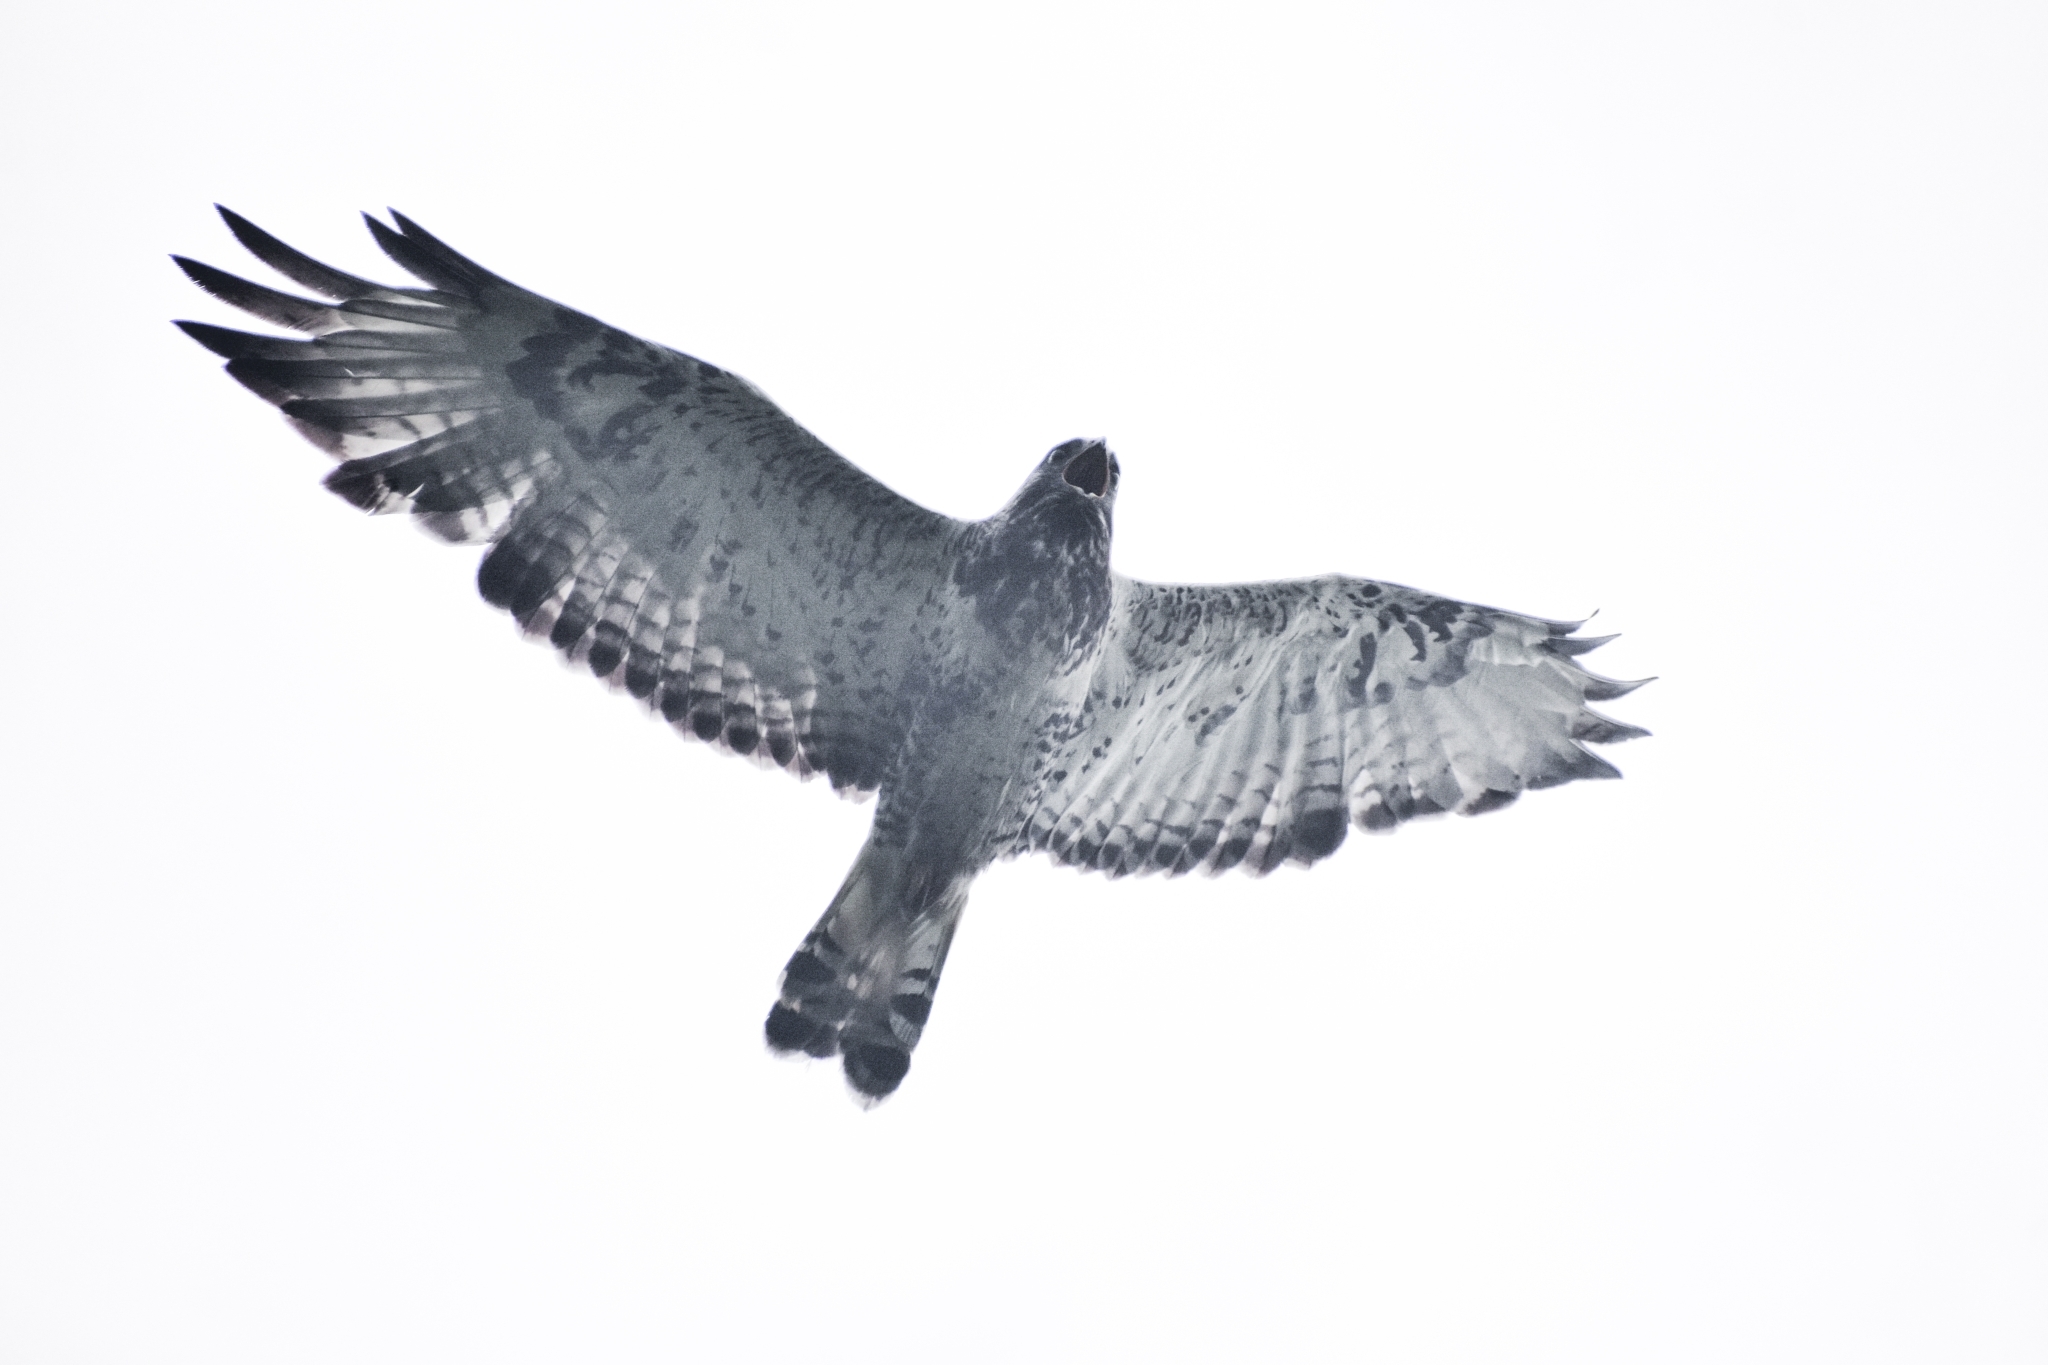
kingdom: Animalia
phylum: Chordata
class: Aves
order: Accipitriformes
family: Accipitridae
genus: Buteo
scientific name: Buteo lagopus
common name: Rough-legged buzzard
